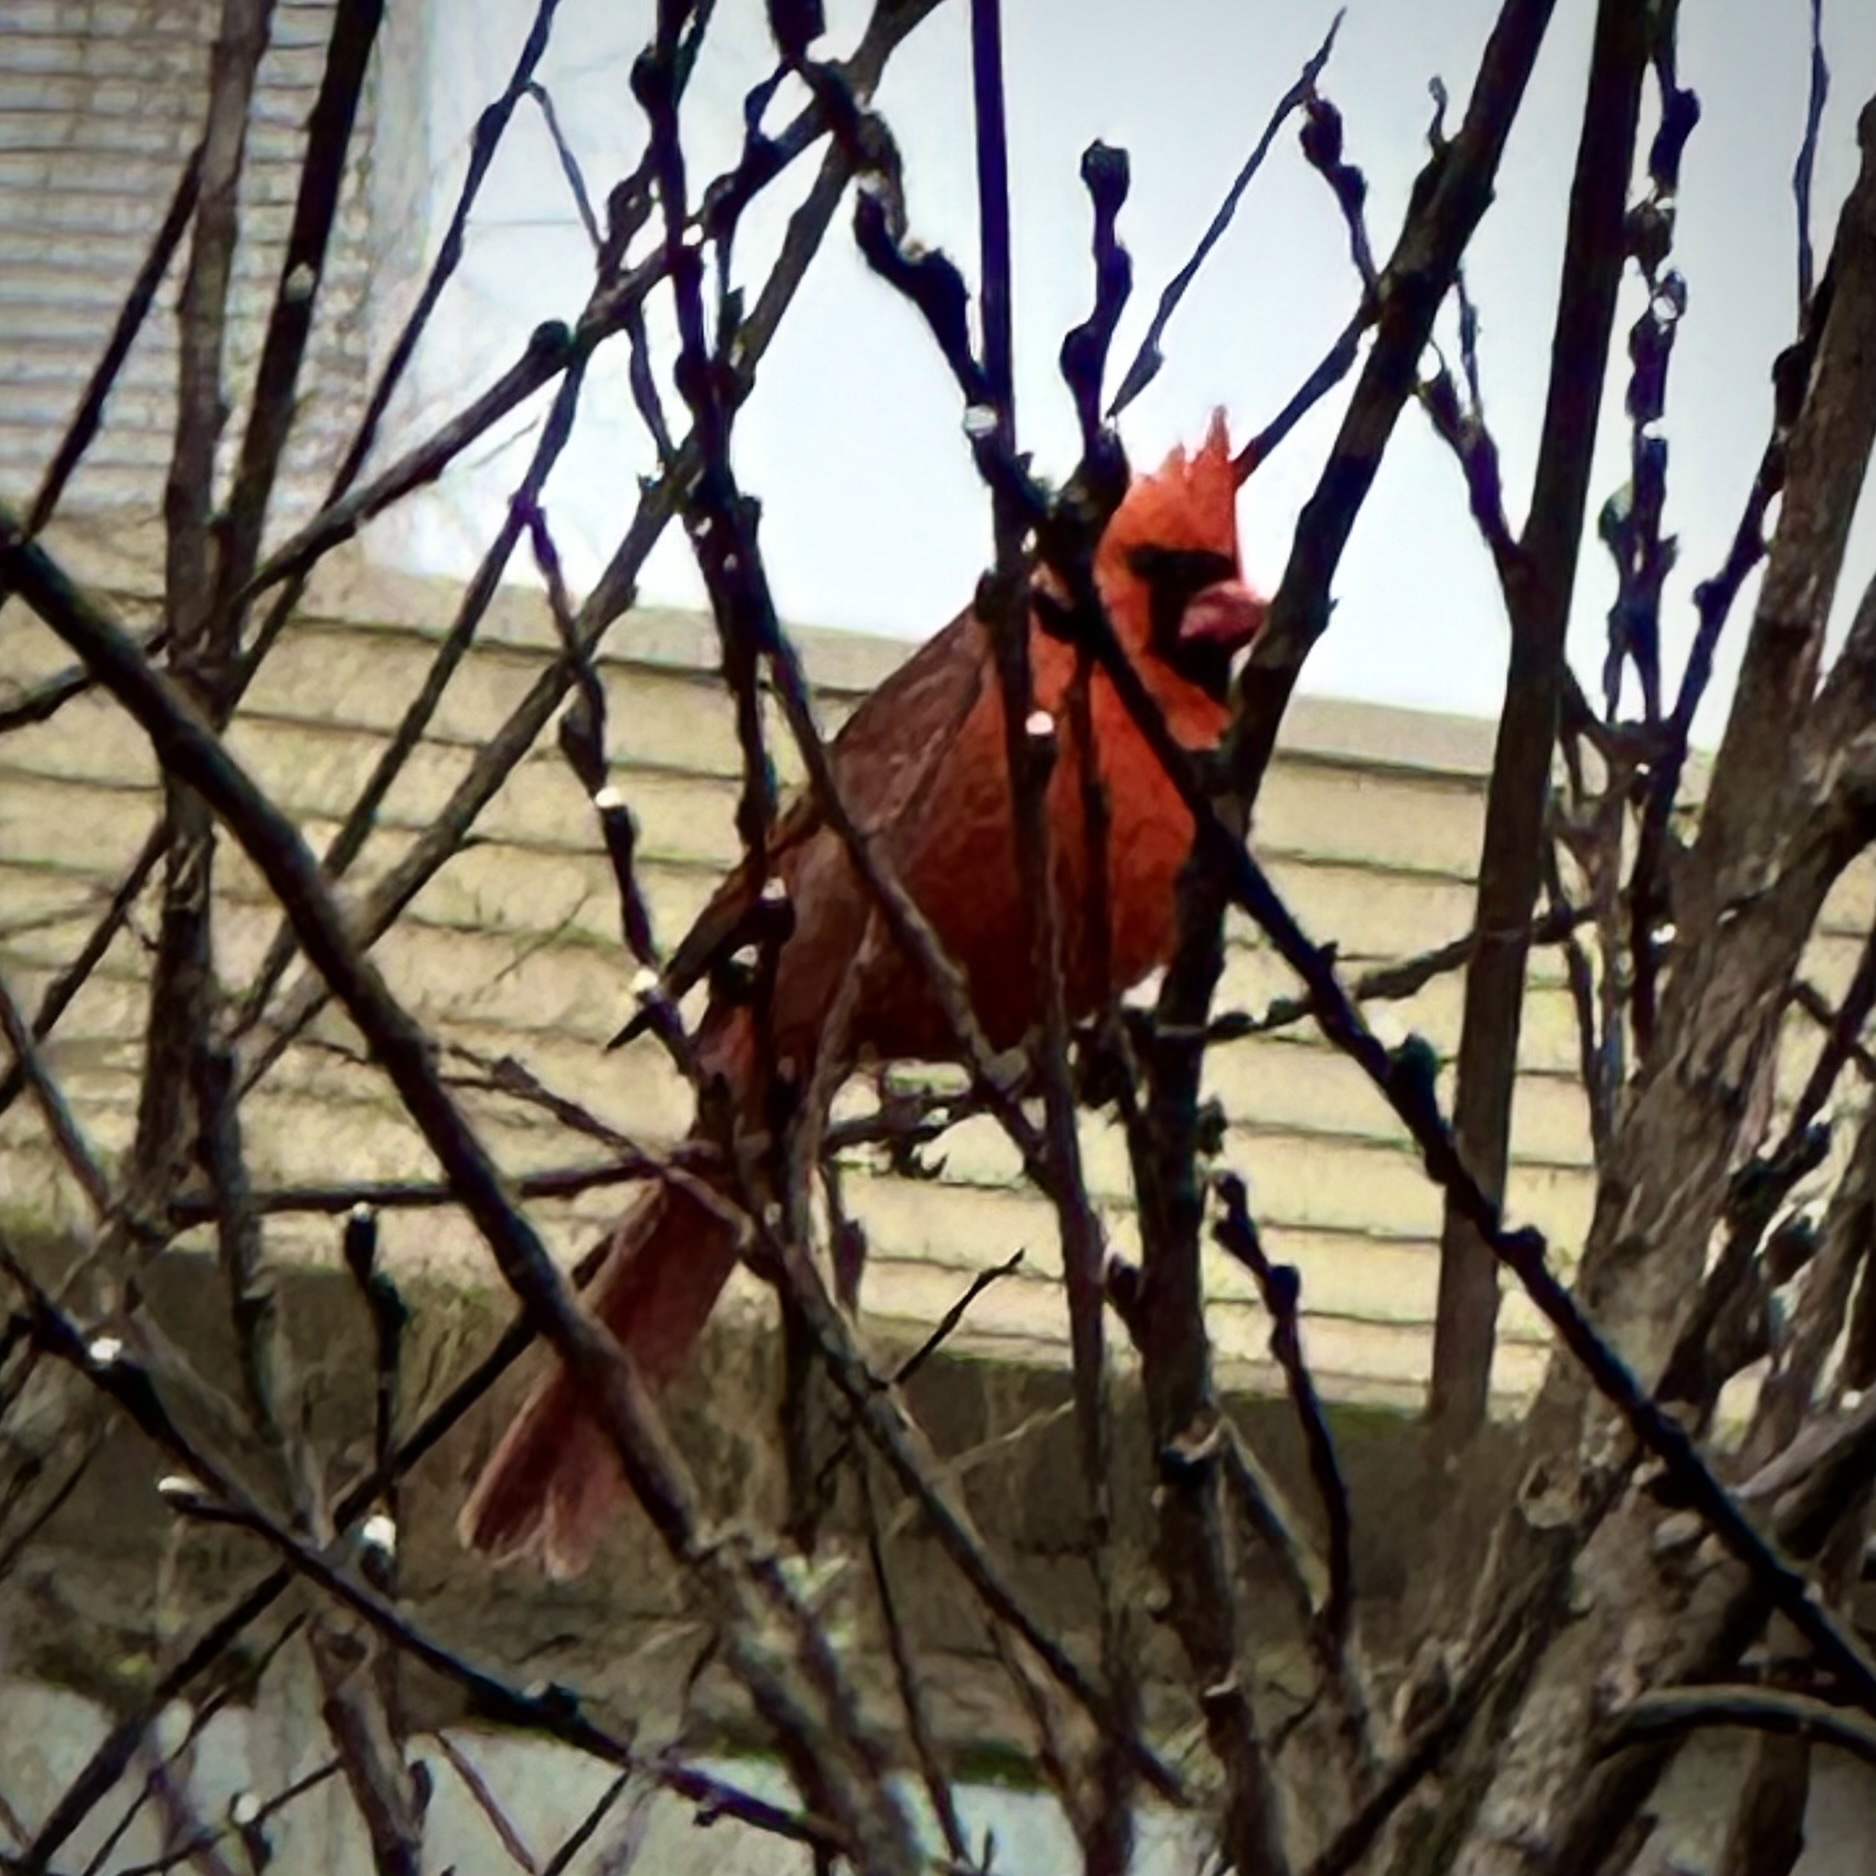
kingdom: Animalia
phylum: Chordata
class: Aves
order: Passeriformes
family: Cardinalidae
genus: Cardinalis
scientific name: Cardinalis cardinalis
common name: Northern cardinal
